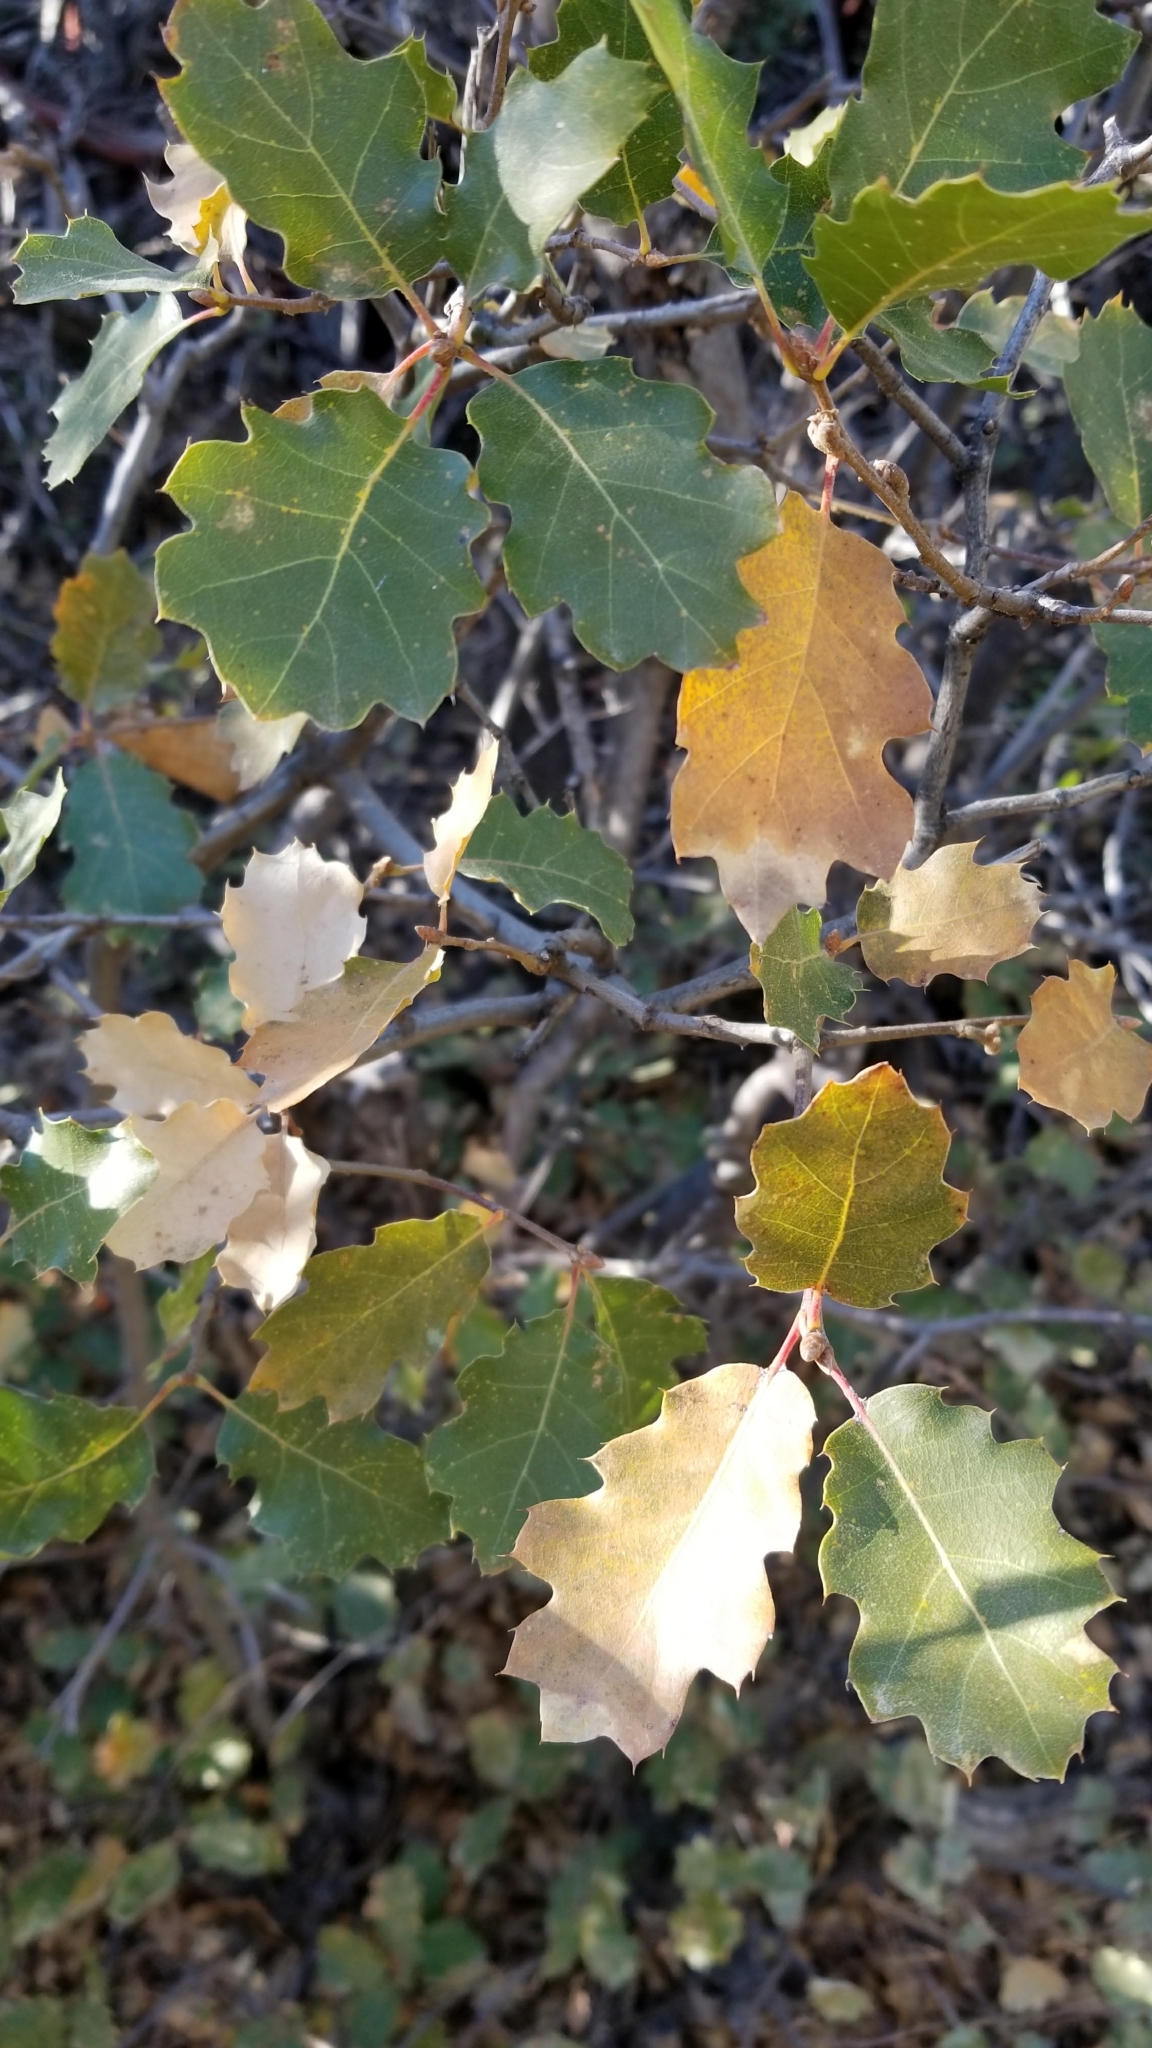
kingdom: Plantae
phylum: Tracheophyta
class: Magnoliopsida
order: Fagales
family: Fagaceae
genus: Quercus
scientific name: Quercus kelloggii
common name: California black oak
